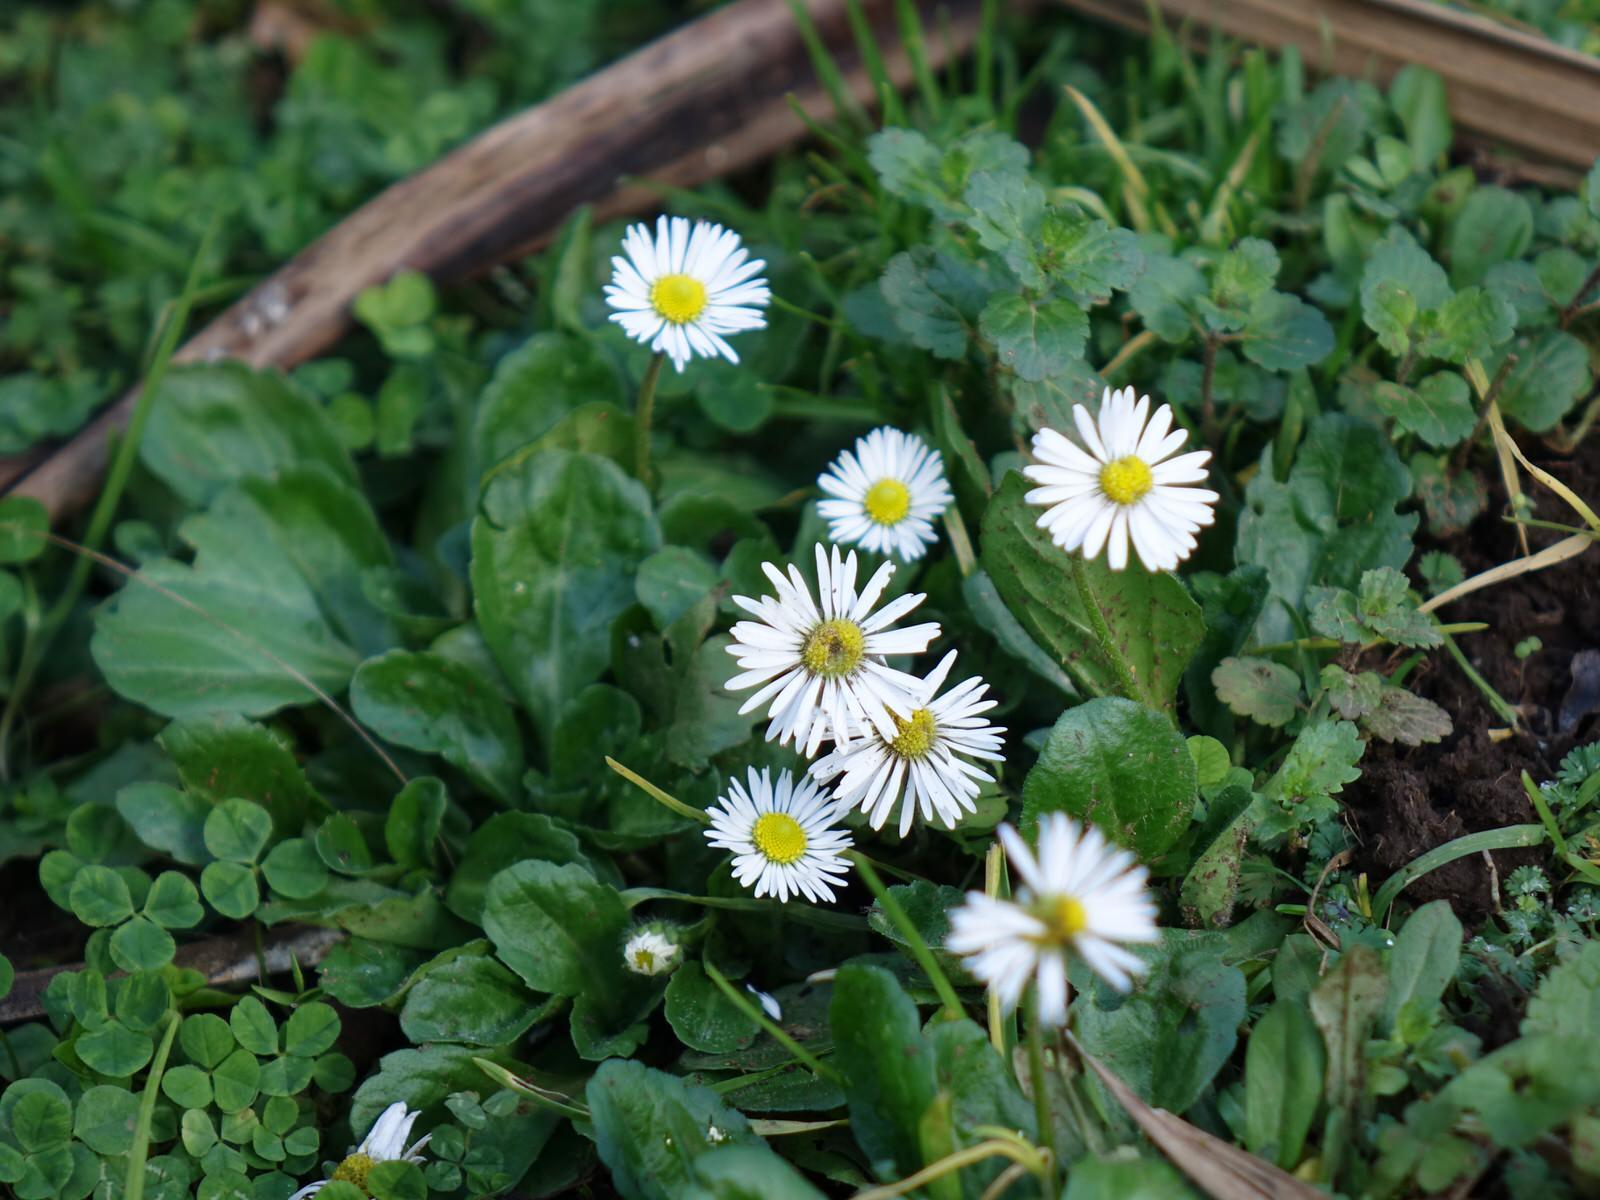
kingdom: Plantae
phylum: Tracheophyta
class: Magnoliopsida
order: Asterales
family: Asteraceae
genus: Bellis
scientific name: Bellis perennis
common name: Lawndaisy
